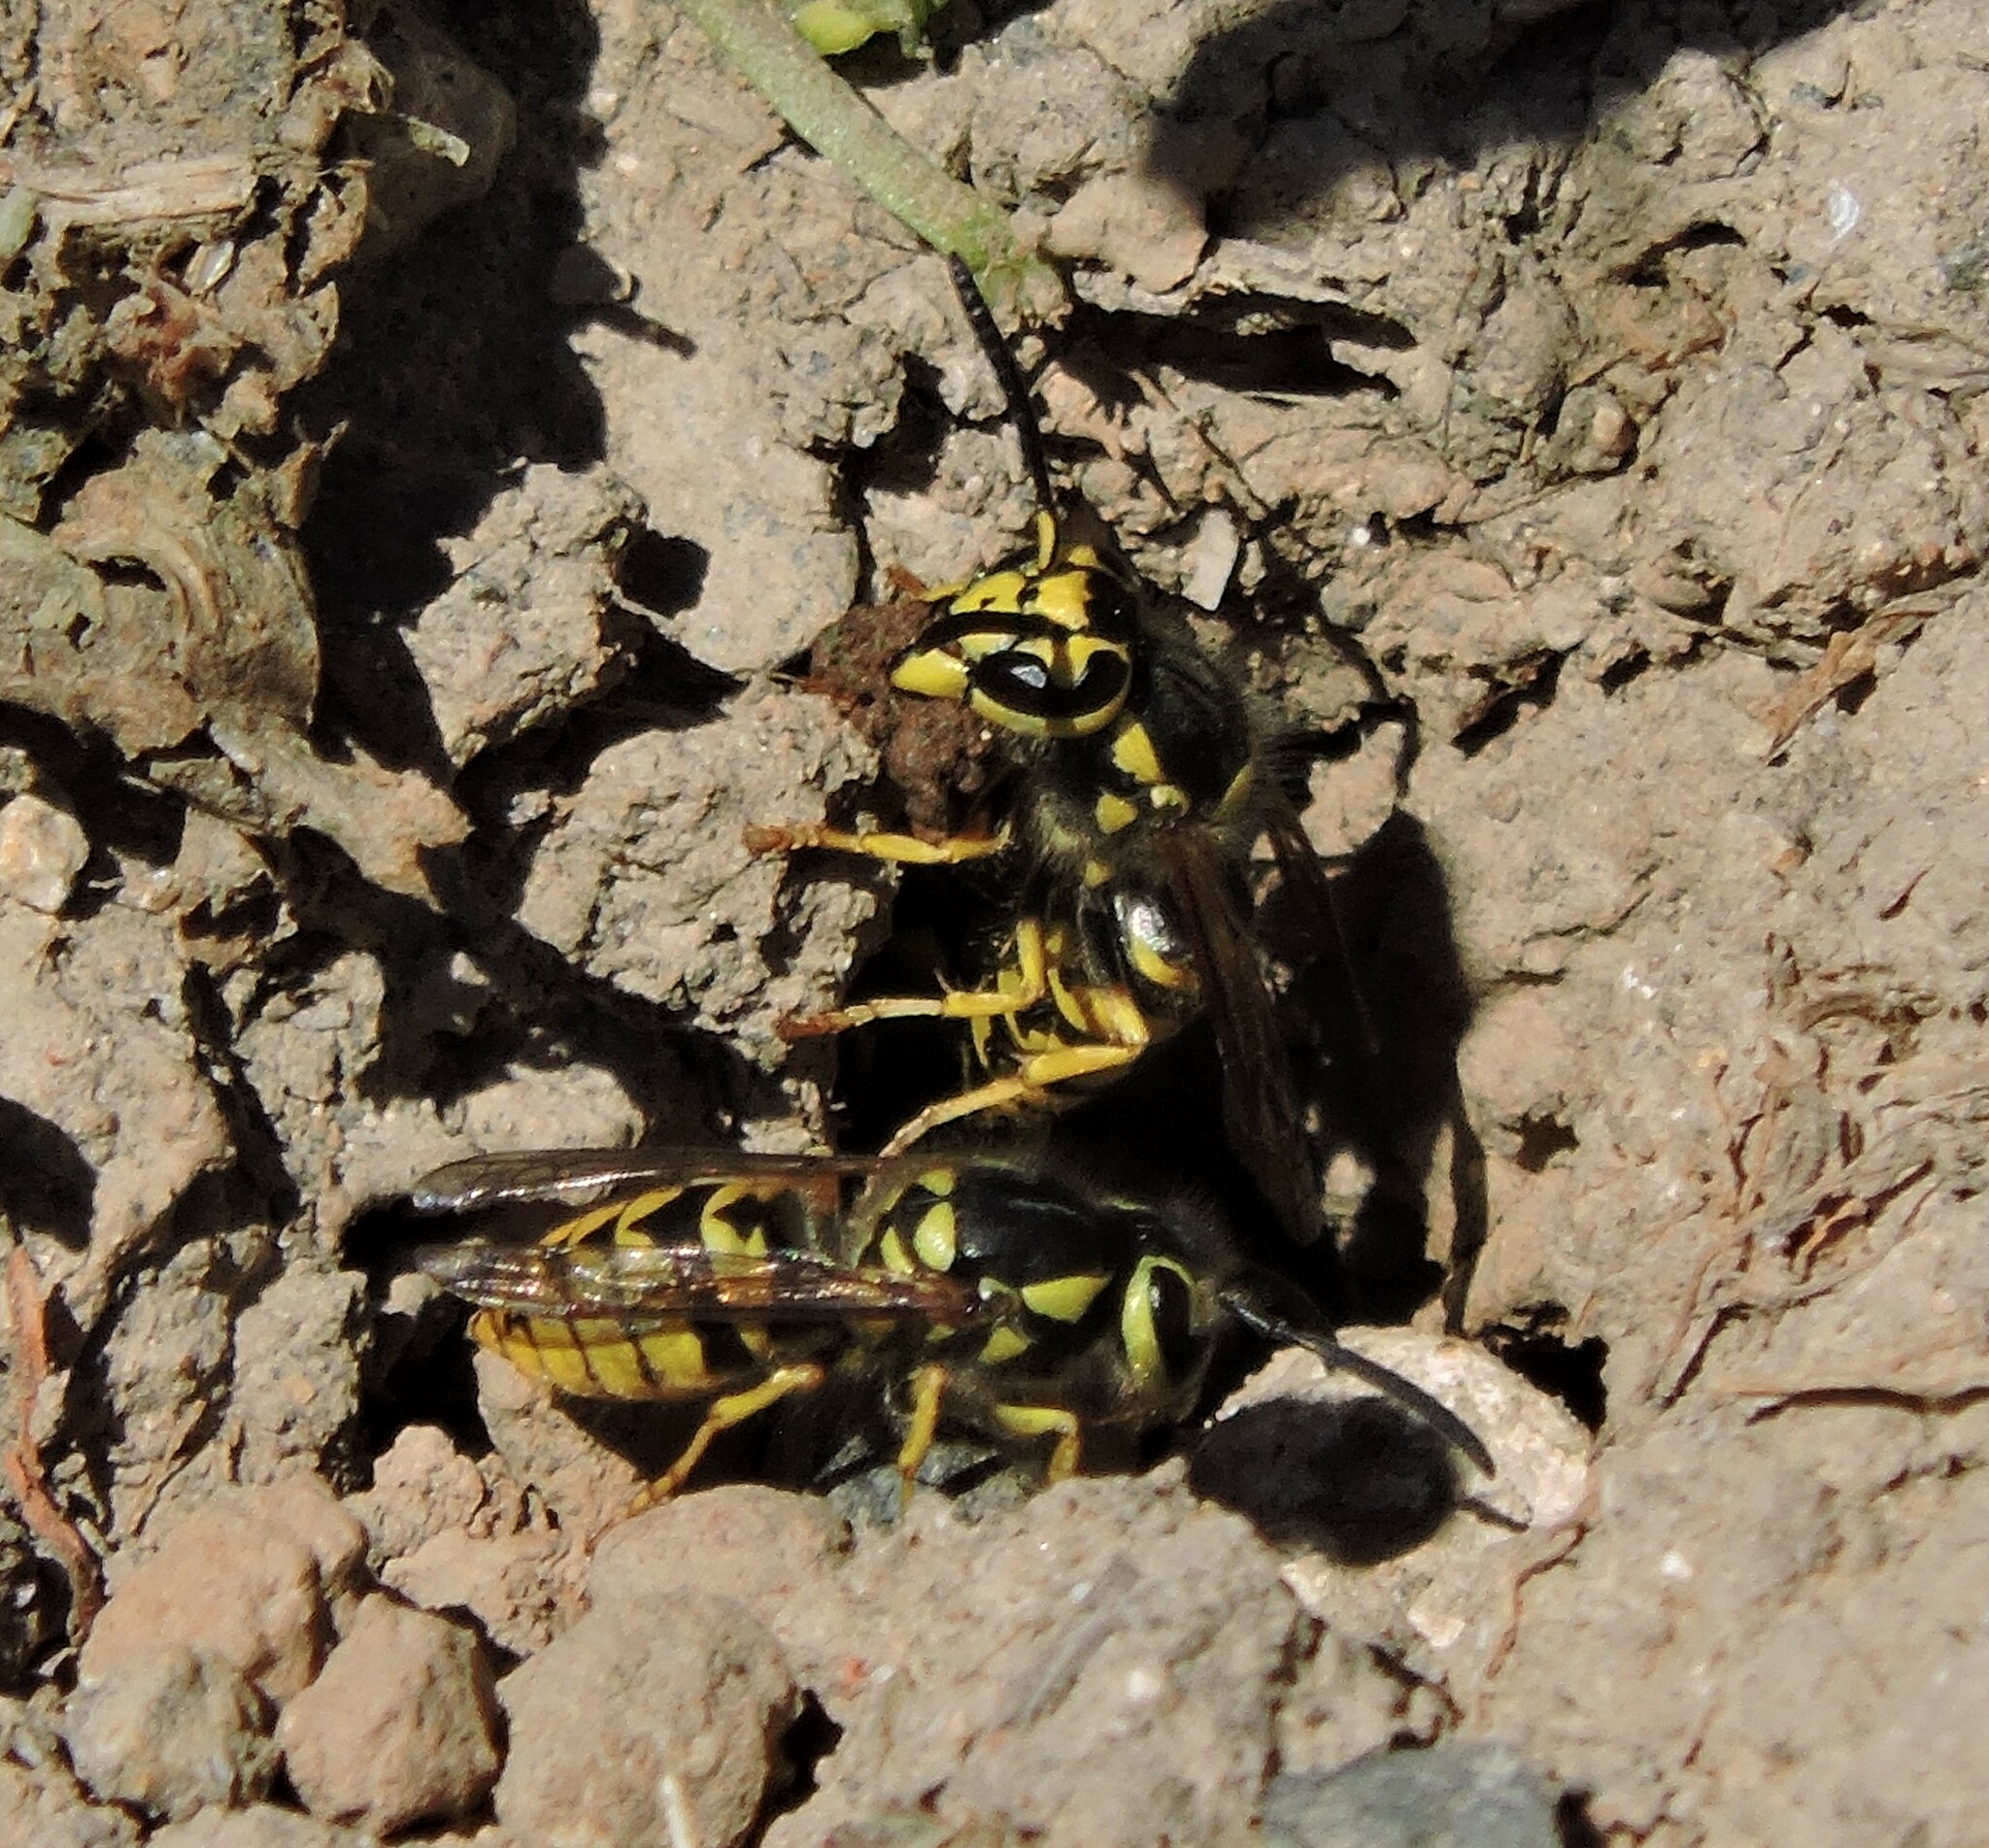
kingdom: Animalia
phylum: Arthropoda
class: Insecta
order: Hymenoptera
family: Vespidae
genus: Vespula
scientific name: Vespula pensylvanica
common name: Western yellowjacket
